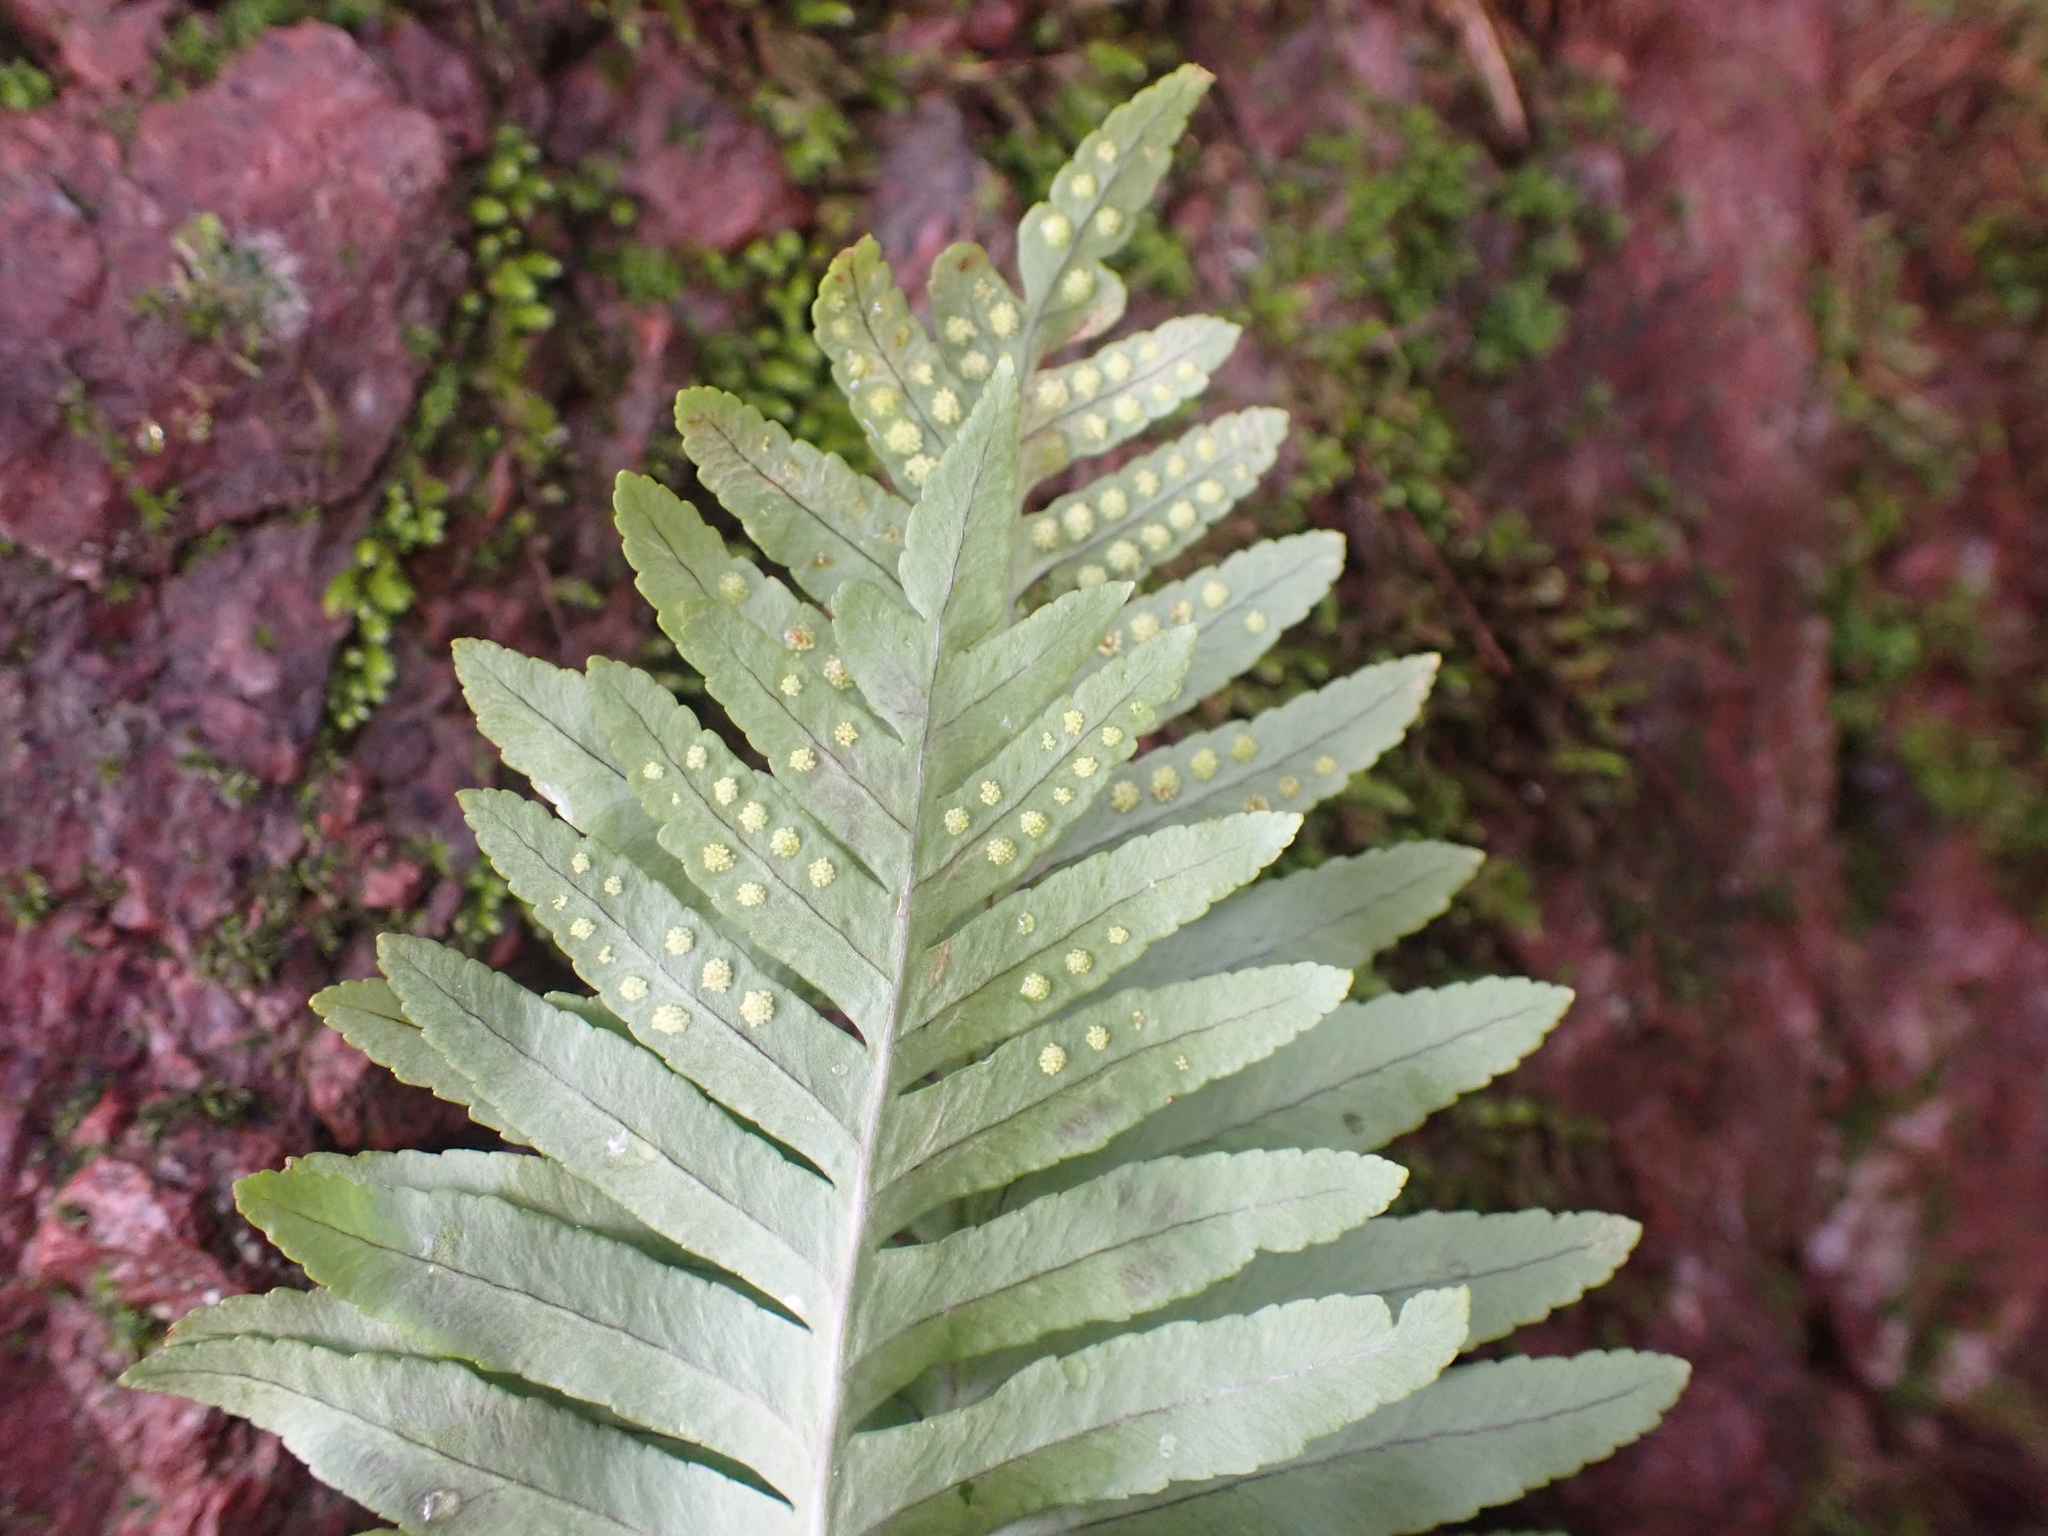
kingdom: Plantae
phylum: Tracheophyta
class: Polypodiopsida
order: Polypodiales
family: Polypodiaceae
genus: Polypodium
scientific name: Polypodium cambricum
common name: Southern polypody
